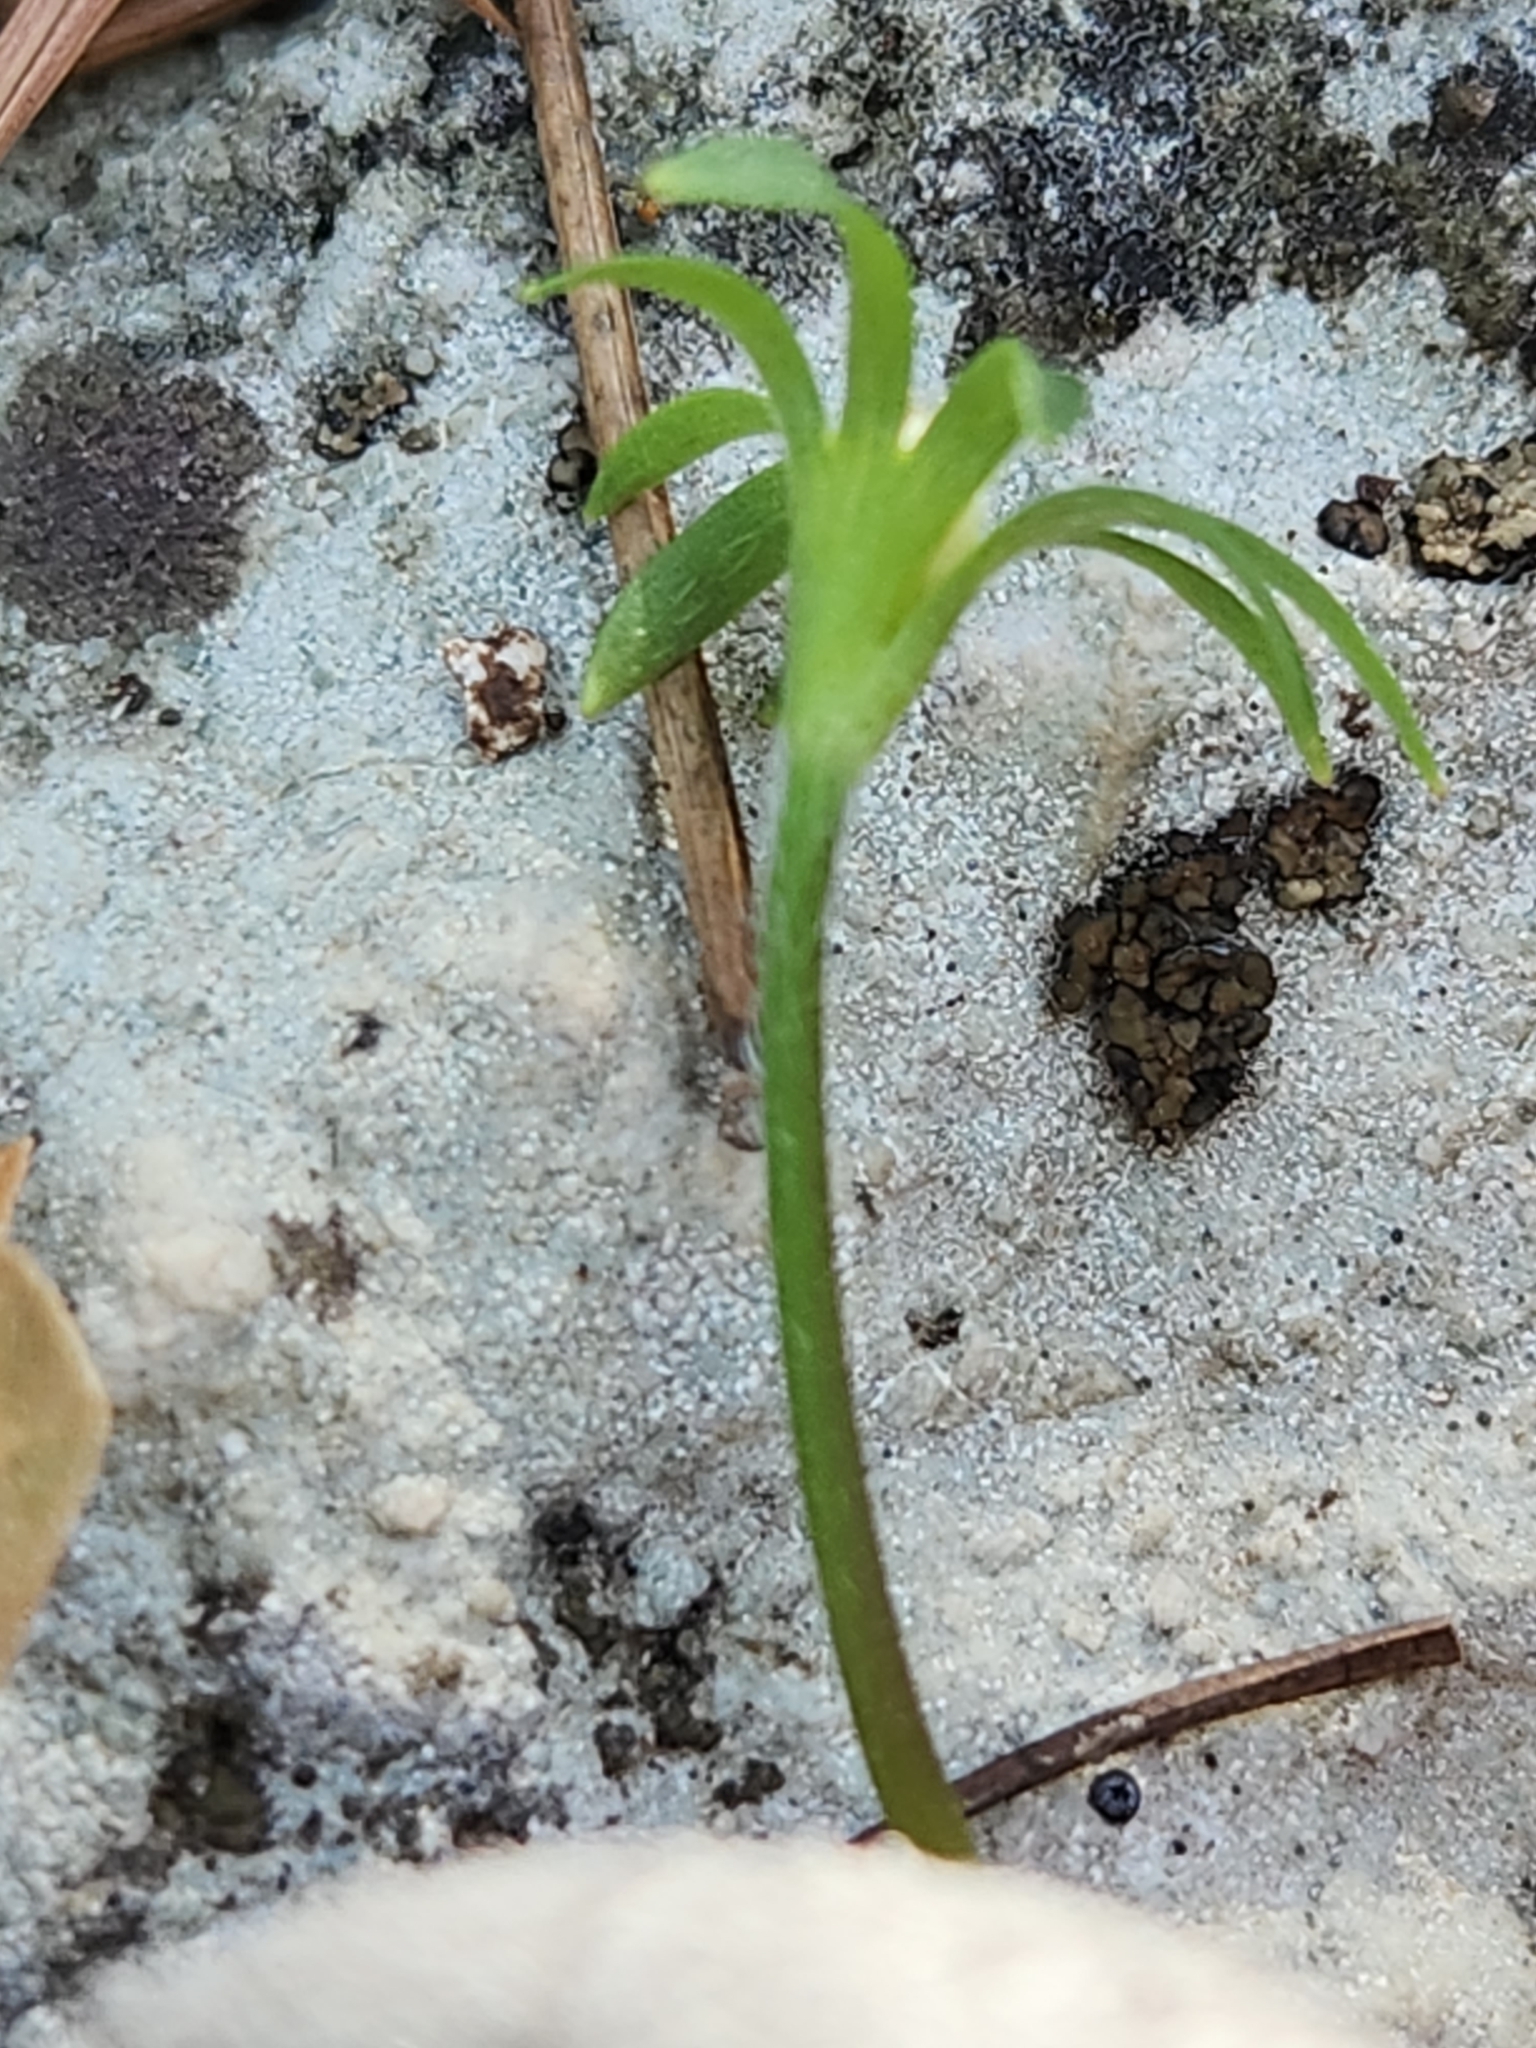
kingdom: Plantae
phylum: Tracheophyta
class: Magnoliopsida
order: Ranunculales
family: Ranunculaceae
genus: Anemone
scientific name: Anemone edwardsiana
